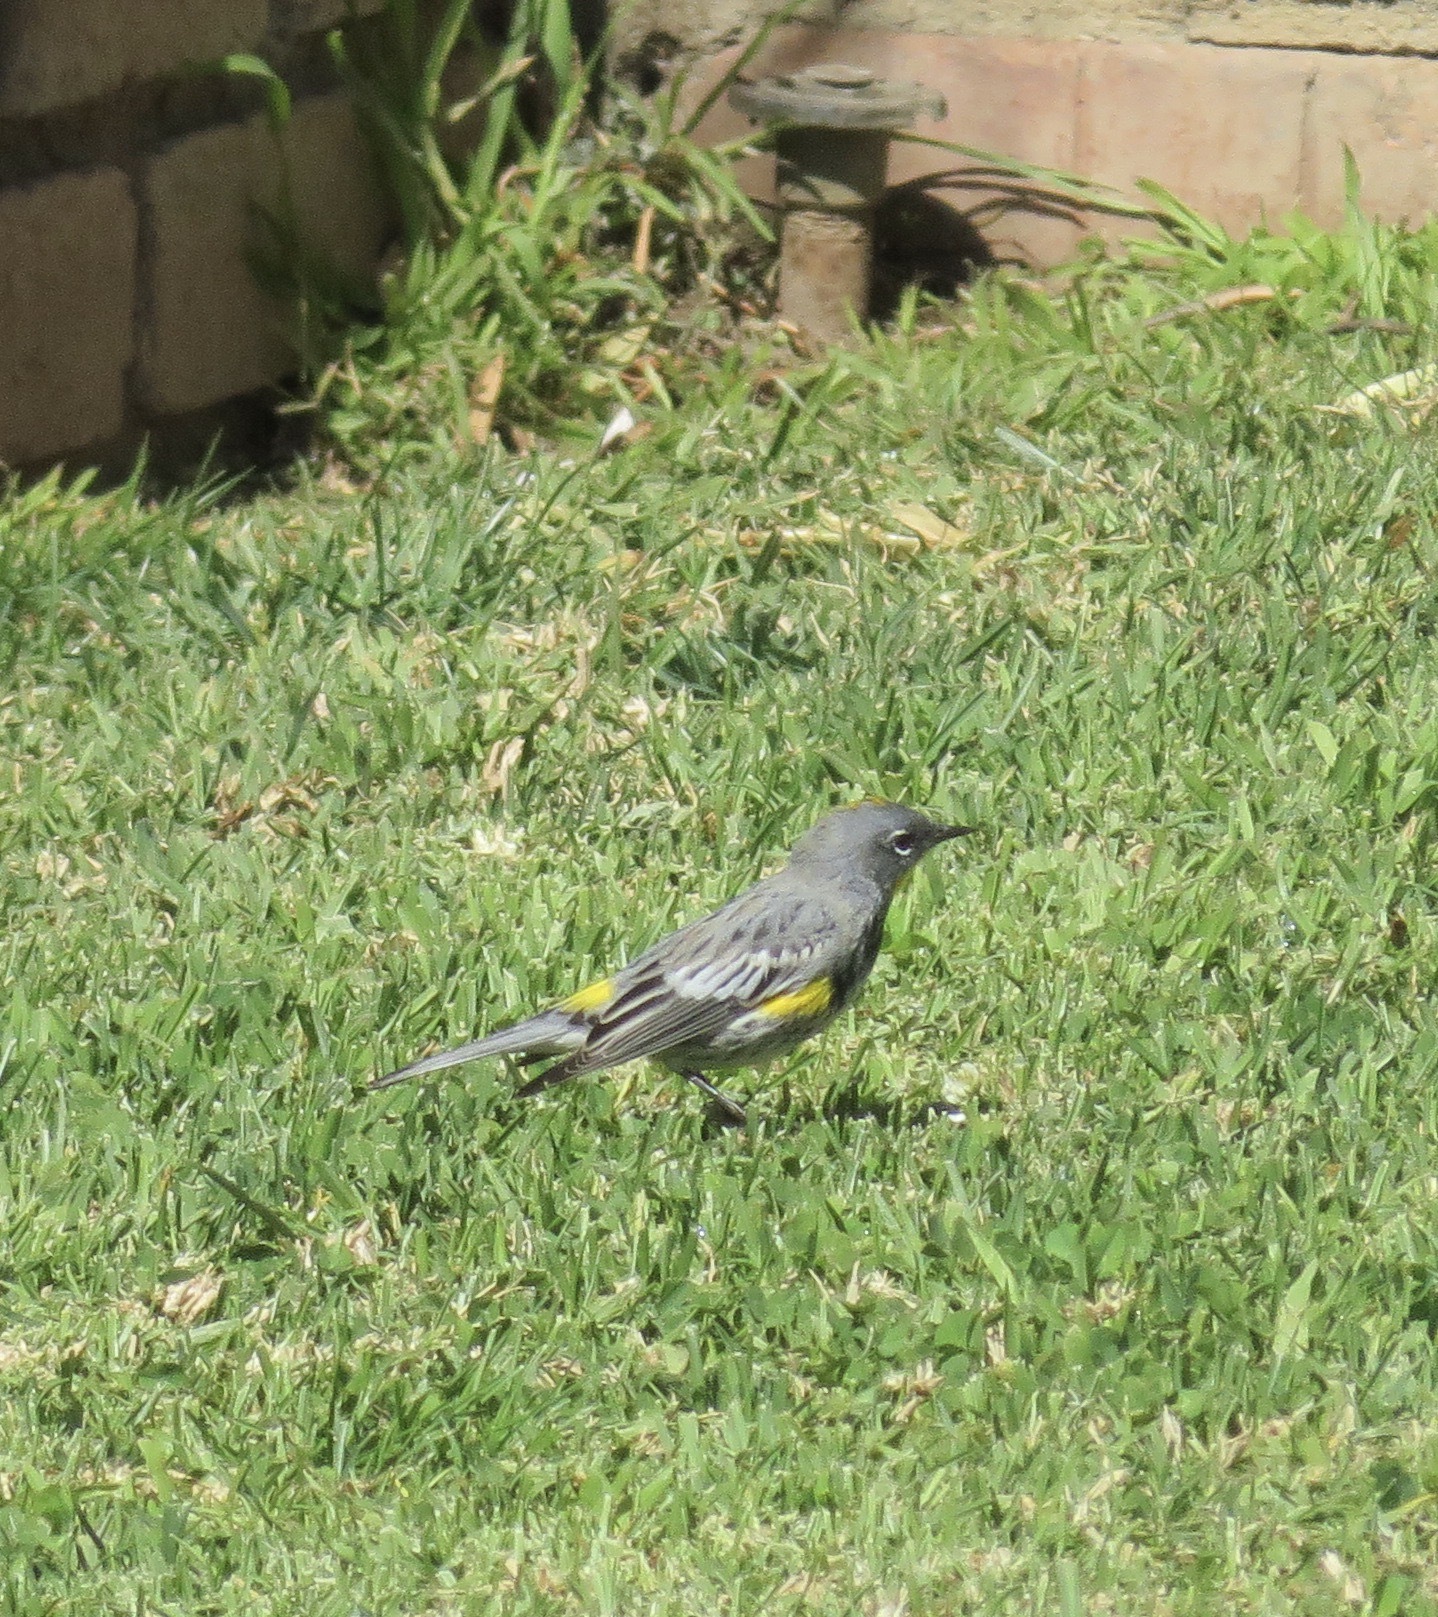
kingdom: Animalia
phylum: Chordata
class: Aves
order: Passeriformes
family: Parulidae
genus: Setophaga
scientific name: Setophaga coronata
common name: Myrtle warbler
